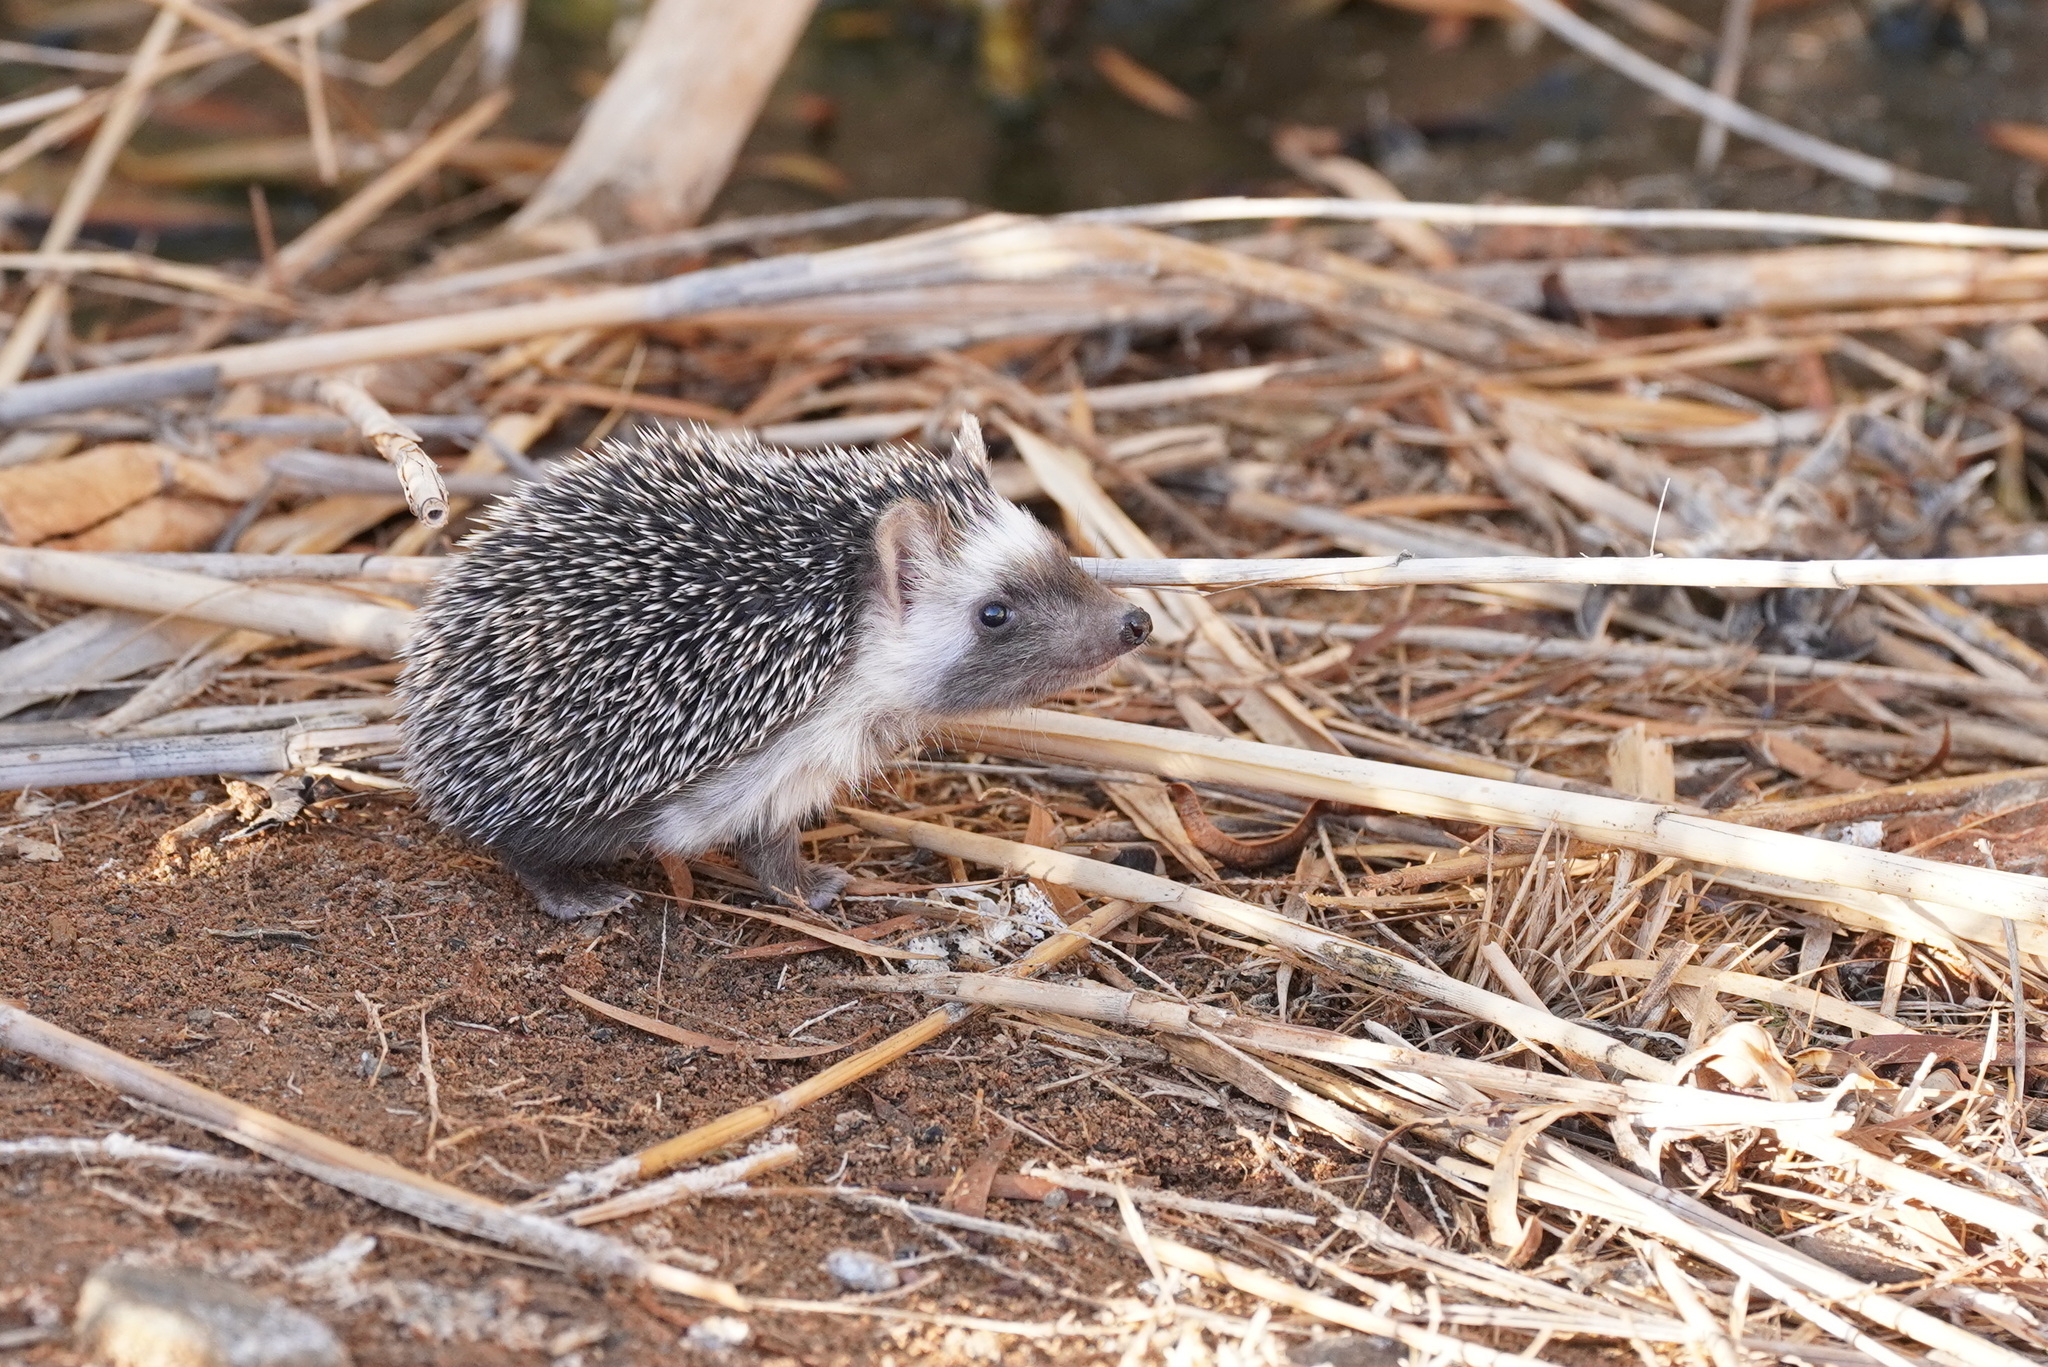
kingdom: Animalia
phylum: Chordata
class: Mammalia
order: Erinaceomorpha
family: Erinaceidae
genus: Atelerix
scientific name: Atelerix algirus
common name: North african hedgehog
